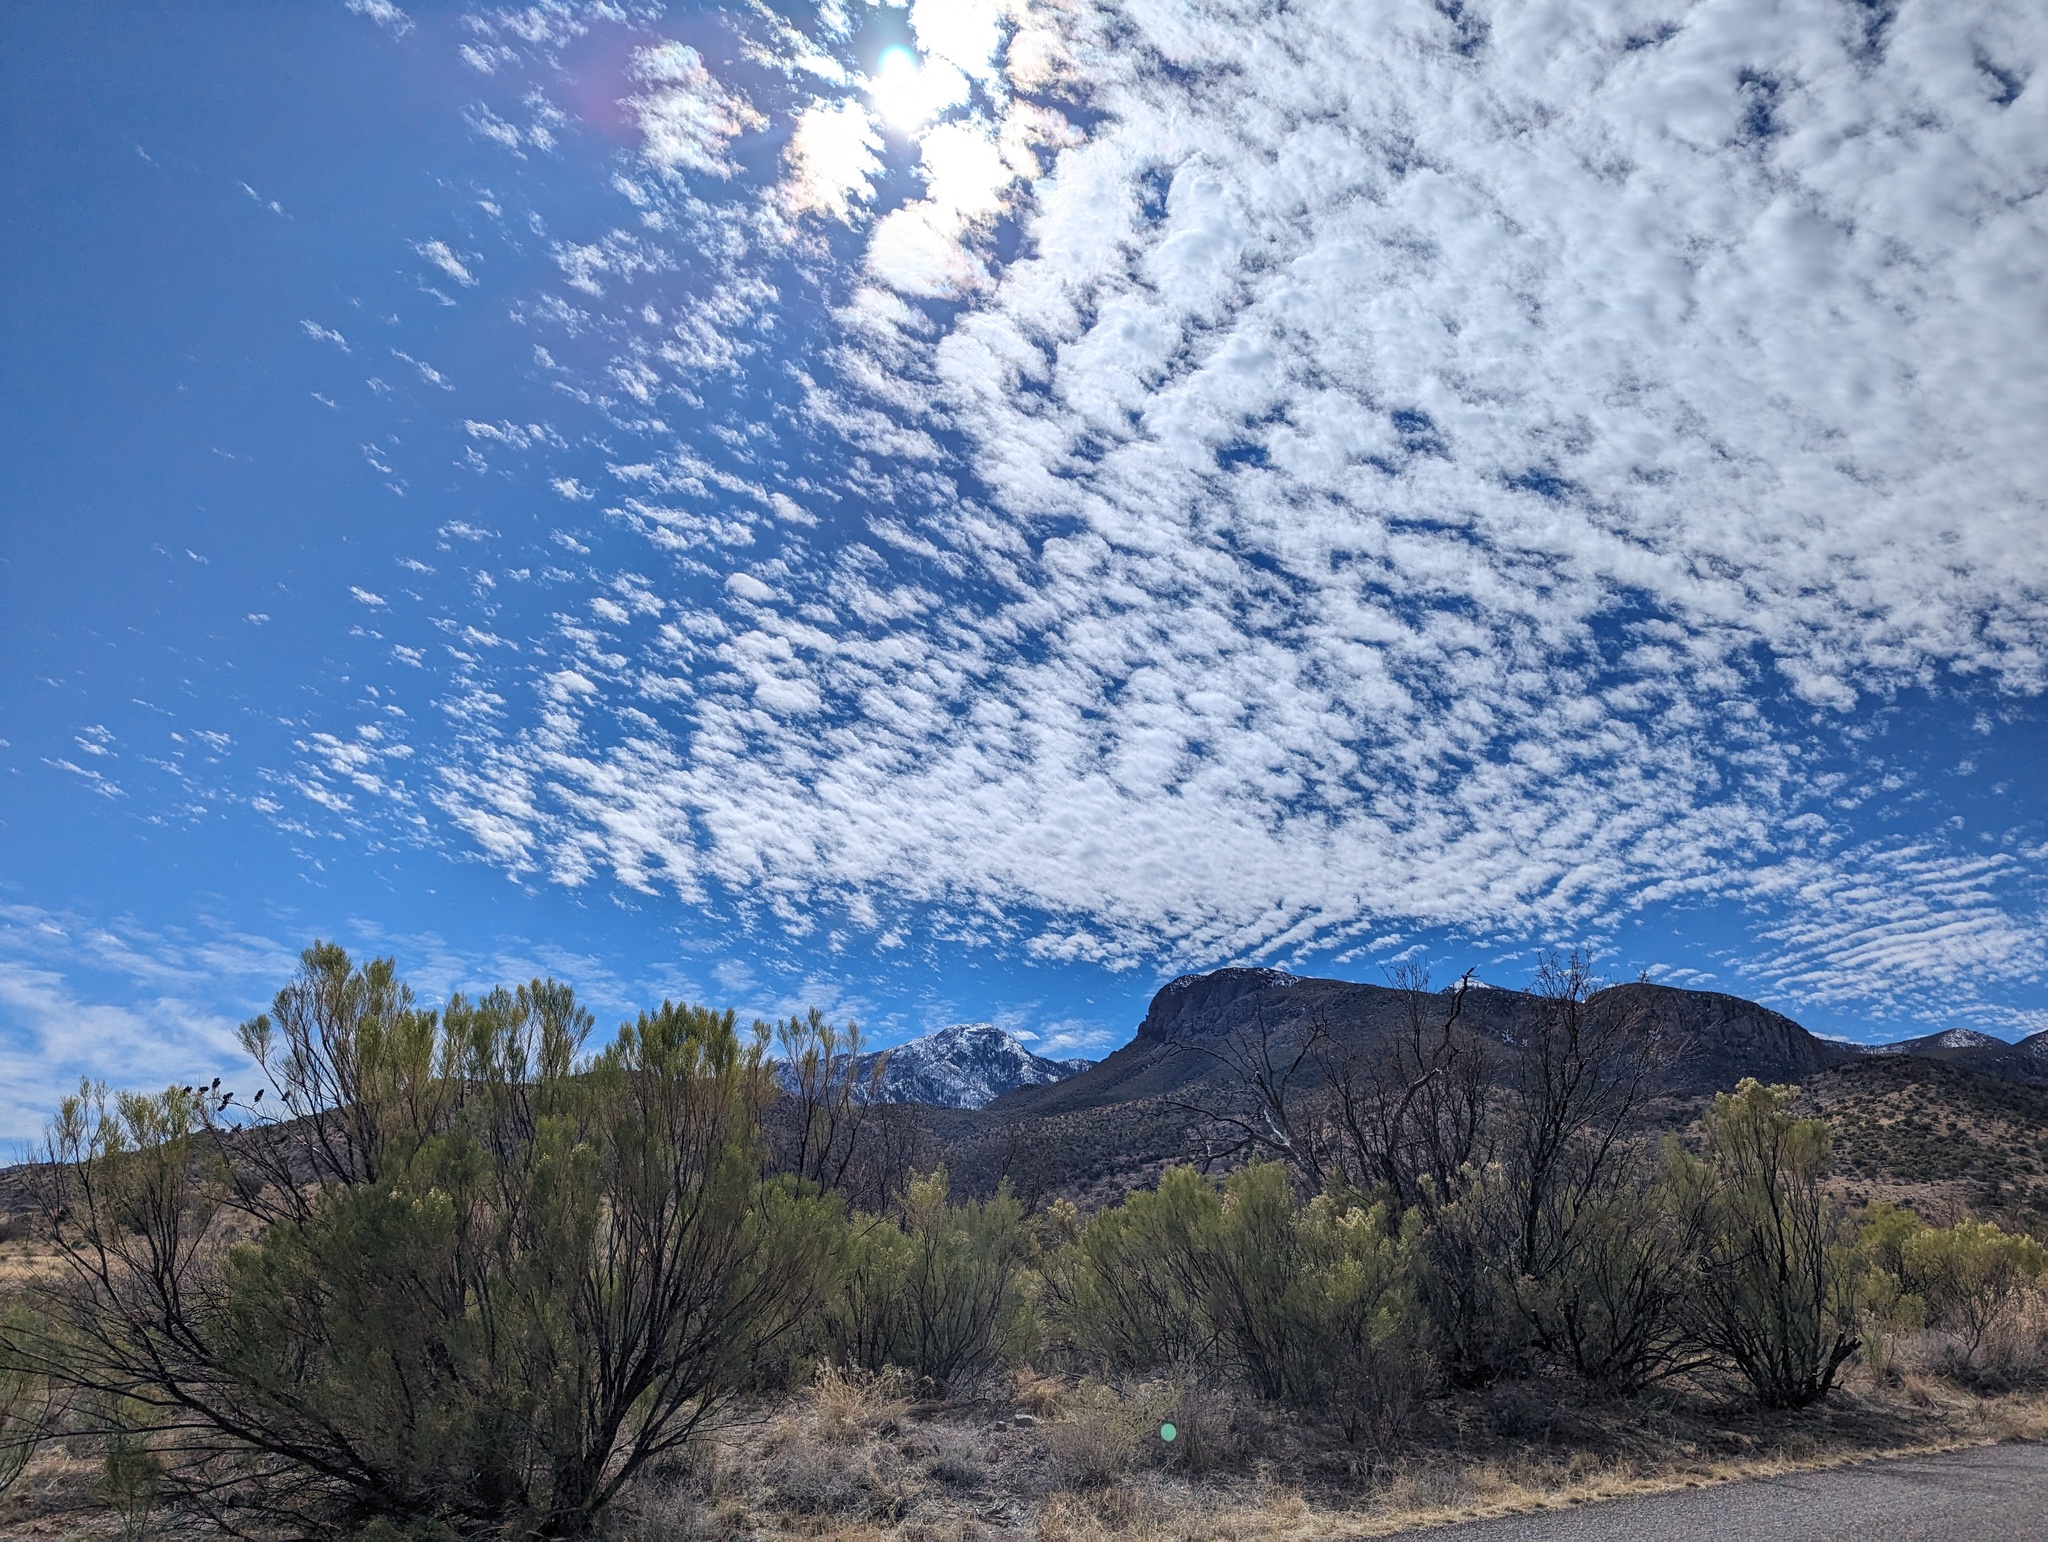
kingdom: Plantae
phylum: Tracheophyta
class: Magnoliopsida
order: Asterales
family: Asteraceae
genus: Baccharis
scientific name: Baccharis sarothroides
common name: Desert-broom
